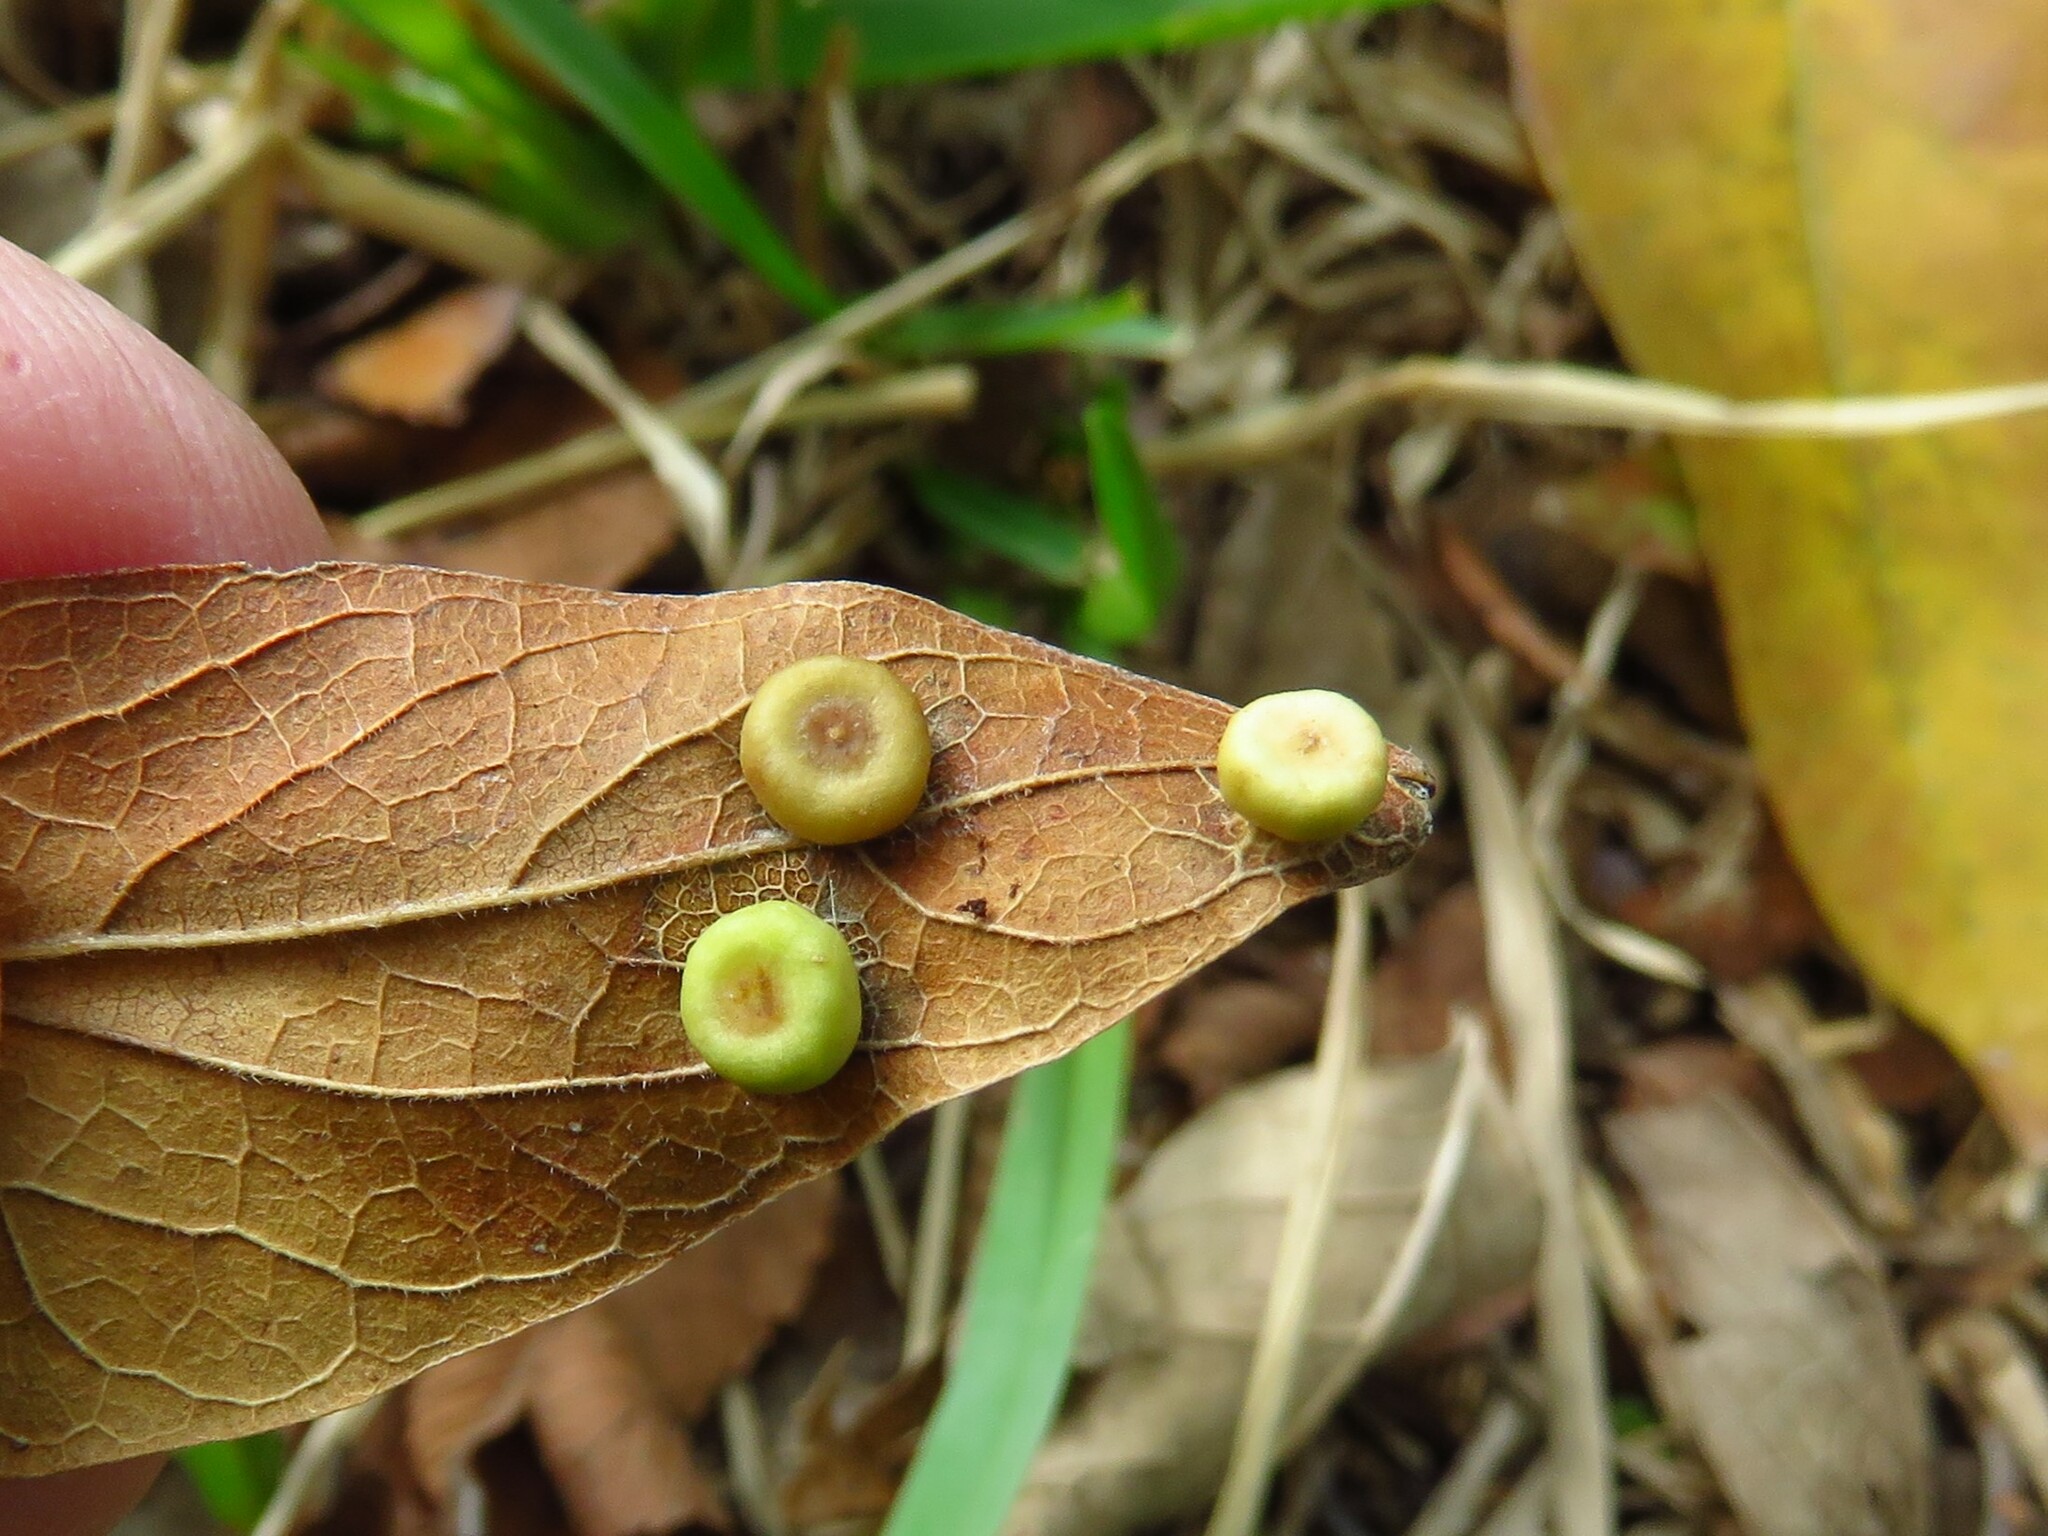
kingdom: Animalia
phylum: Arthropoda
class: Insecta
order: Hemiptera
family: Aphalaridae
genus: Pachypsylla
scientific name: Pachypsylla celtidismamma
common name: Hackberry nipplegall psyllid
